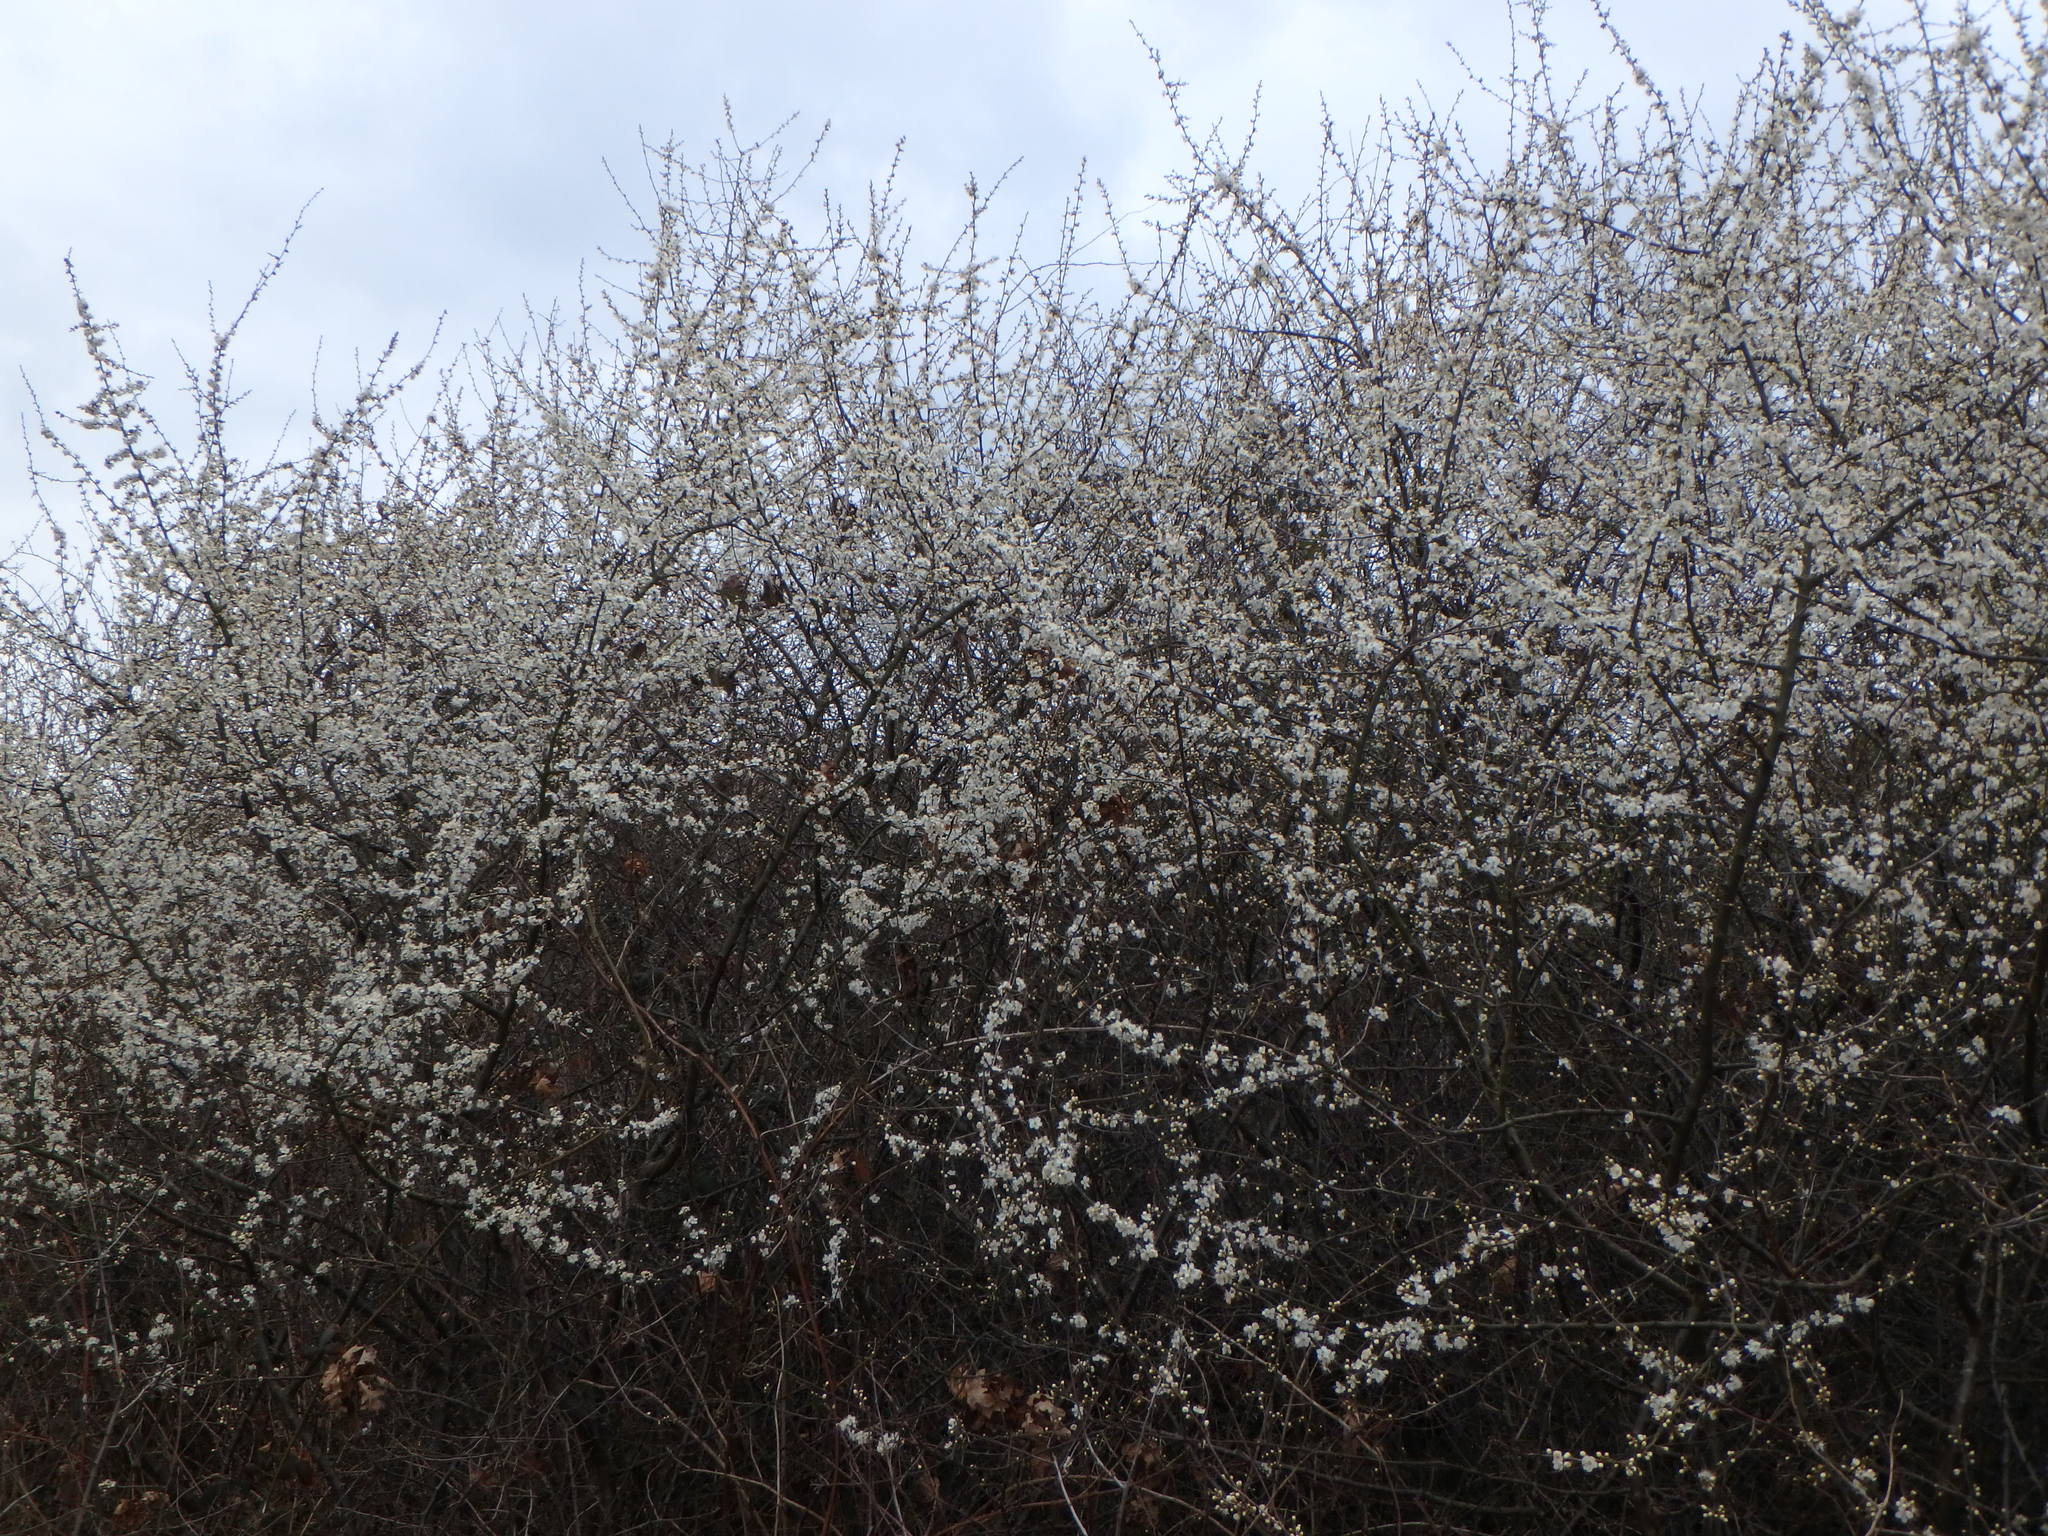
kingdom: Plantae
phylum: Tracheophyta
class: Magnoliopsida
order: Rosales
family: Rosaceae
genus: Prunus
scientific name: Prunus spinosa
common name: Blackthorn
